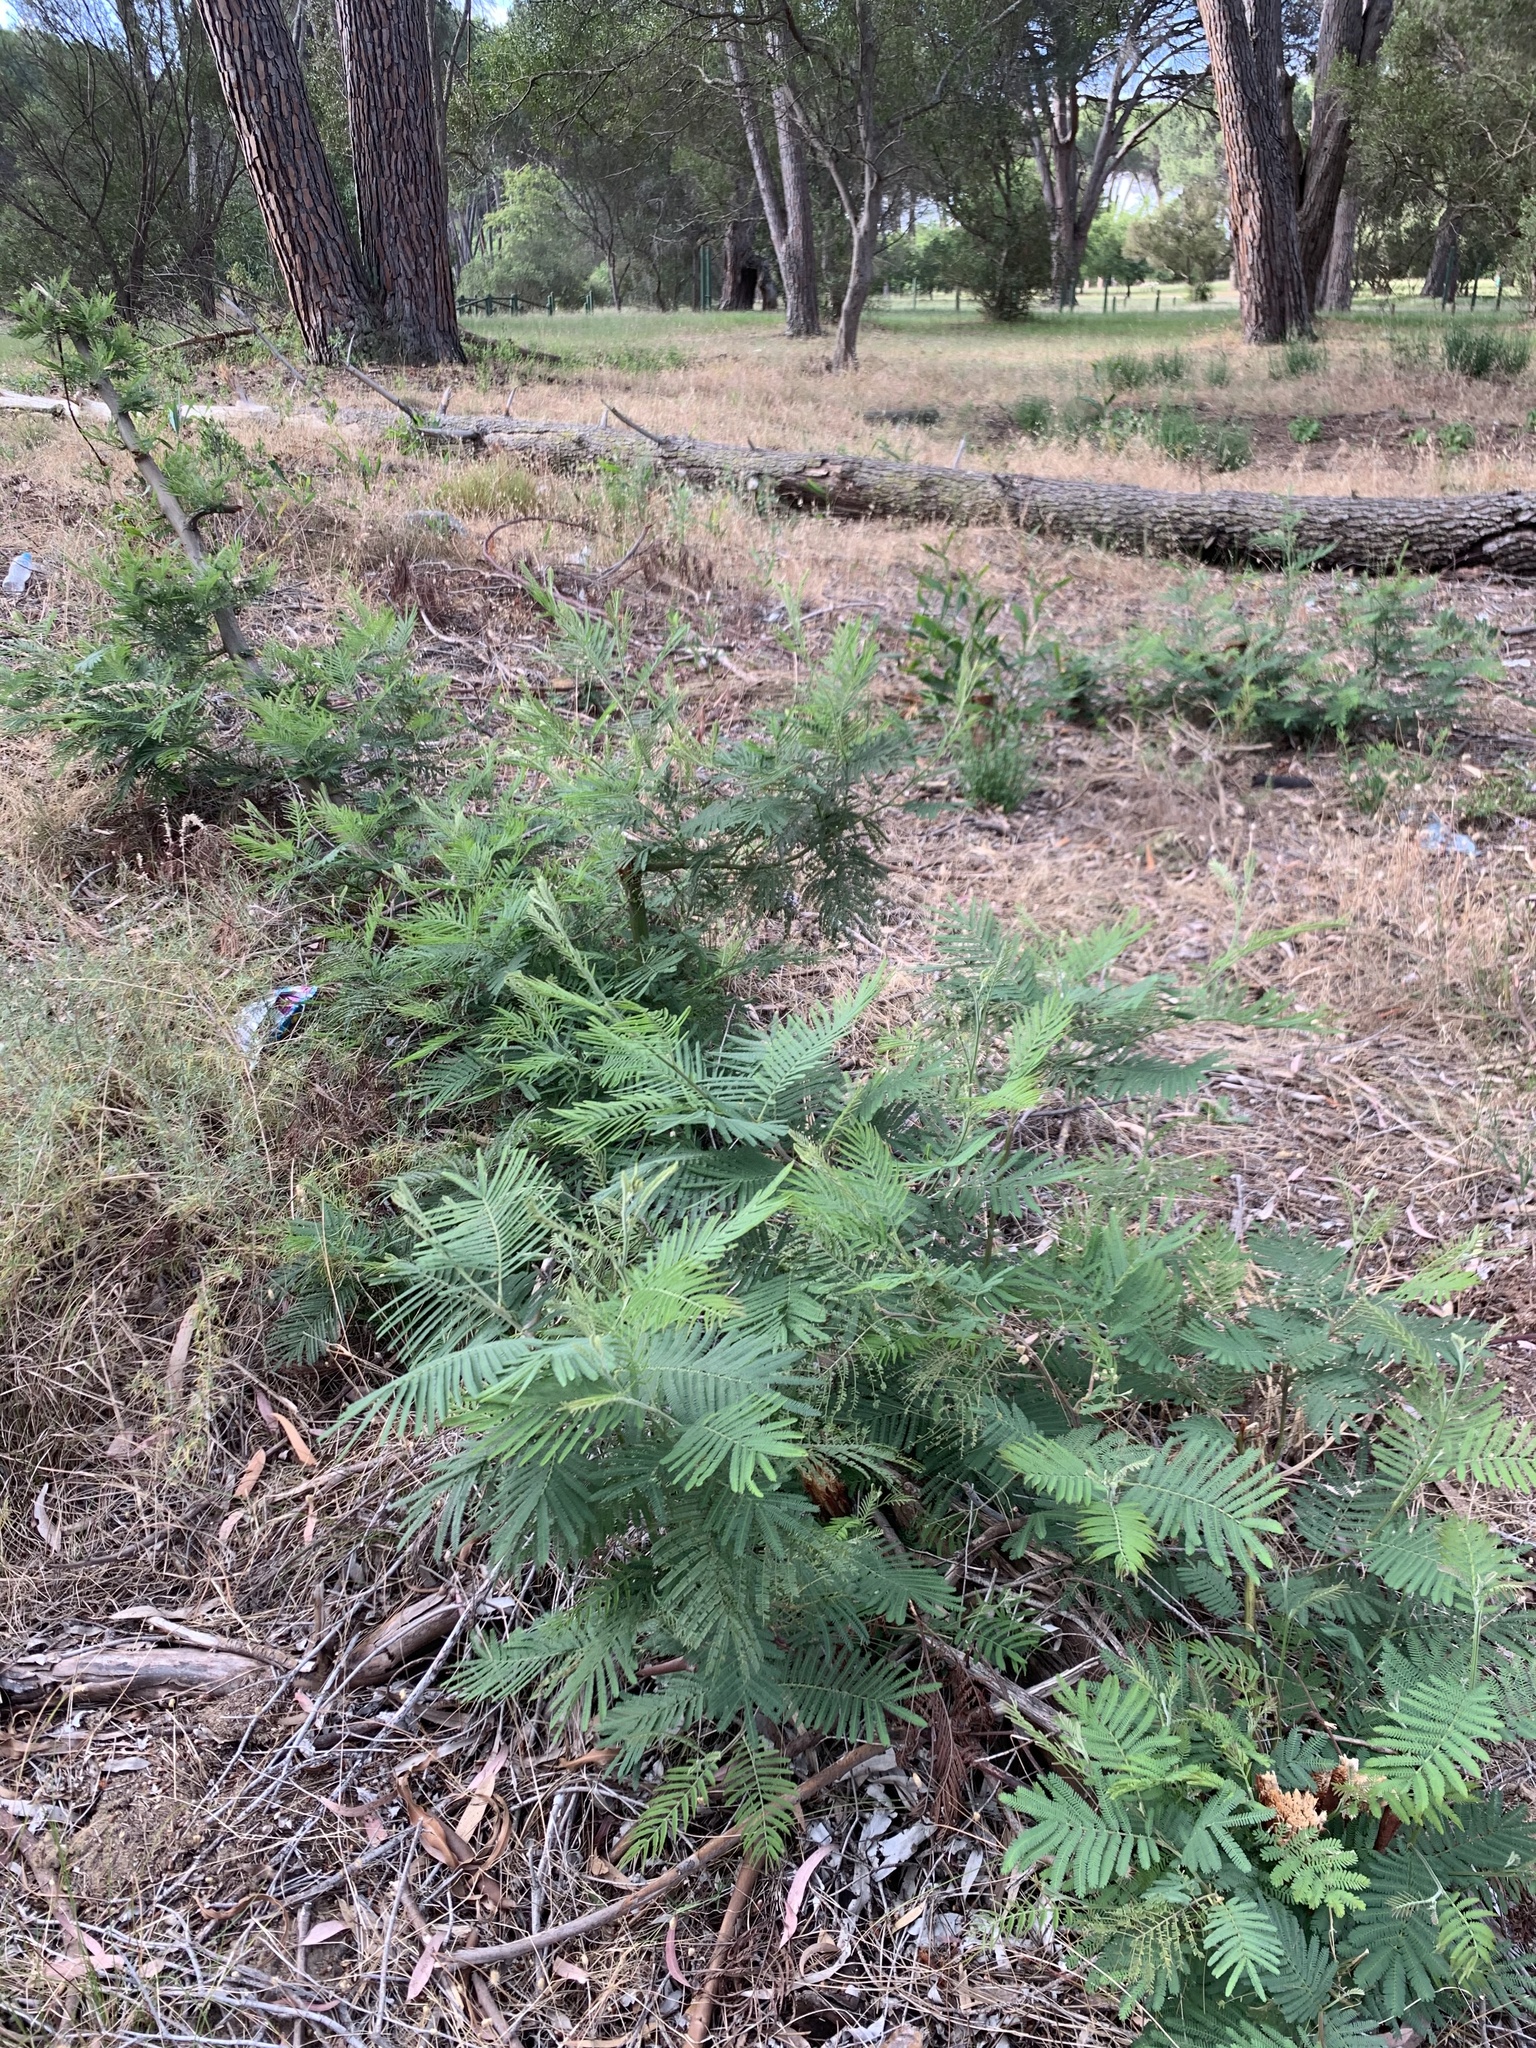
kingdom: Plantae
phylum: Tracheophyta
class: Magnoliopsida
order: Fabales
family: Fabaceae
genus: Acacia
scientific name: Acacia mearnsii
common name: Black wattle
